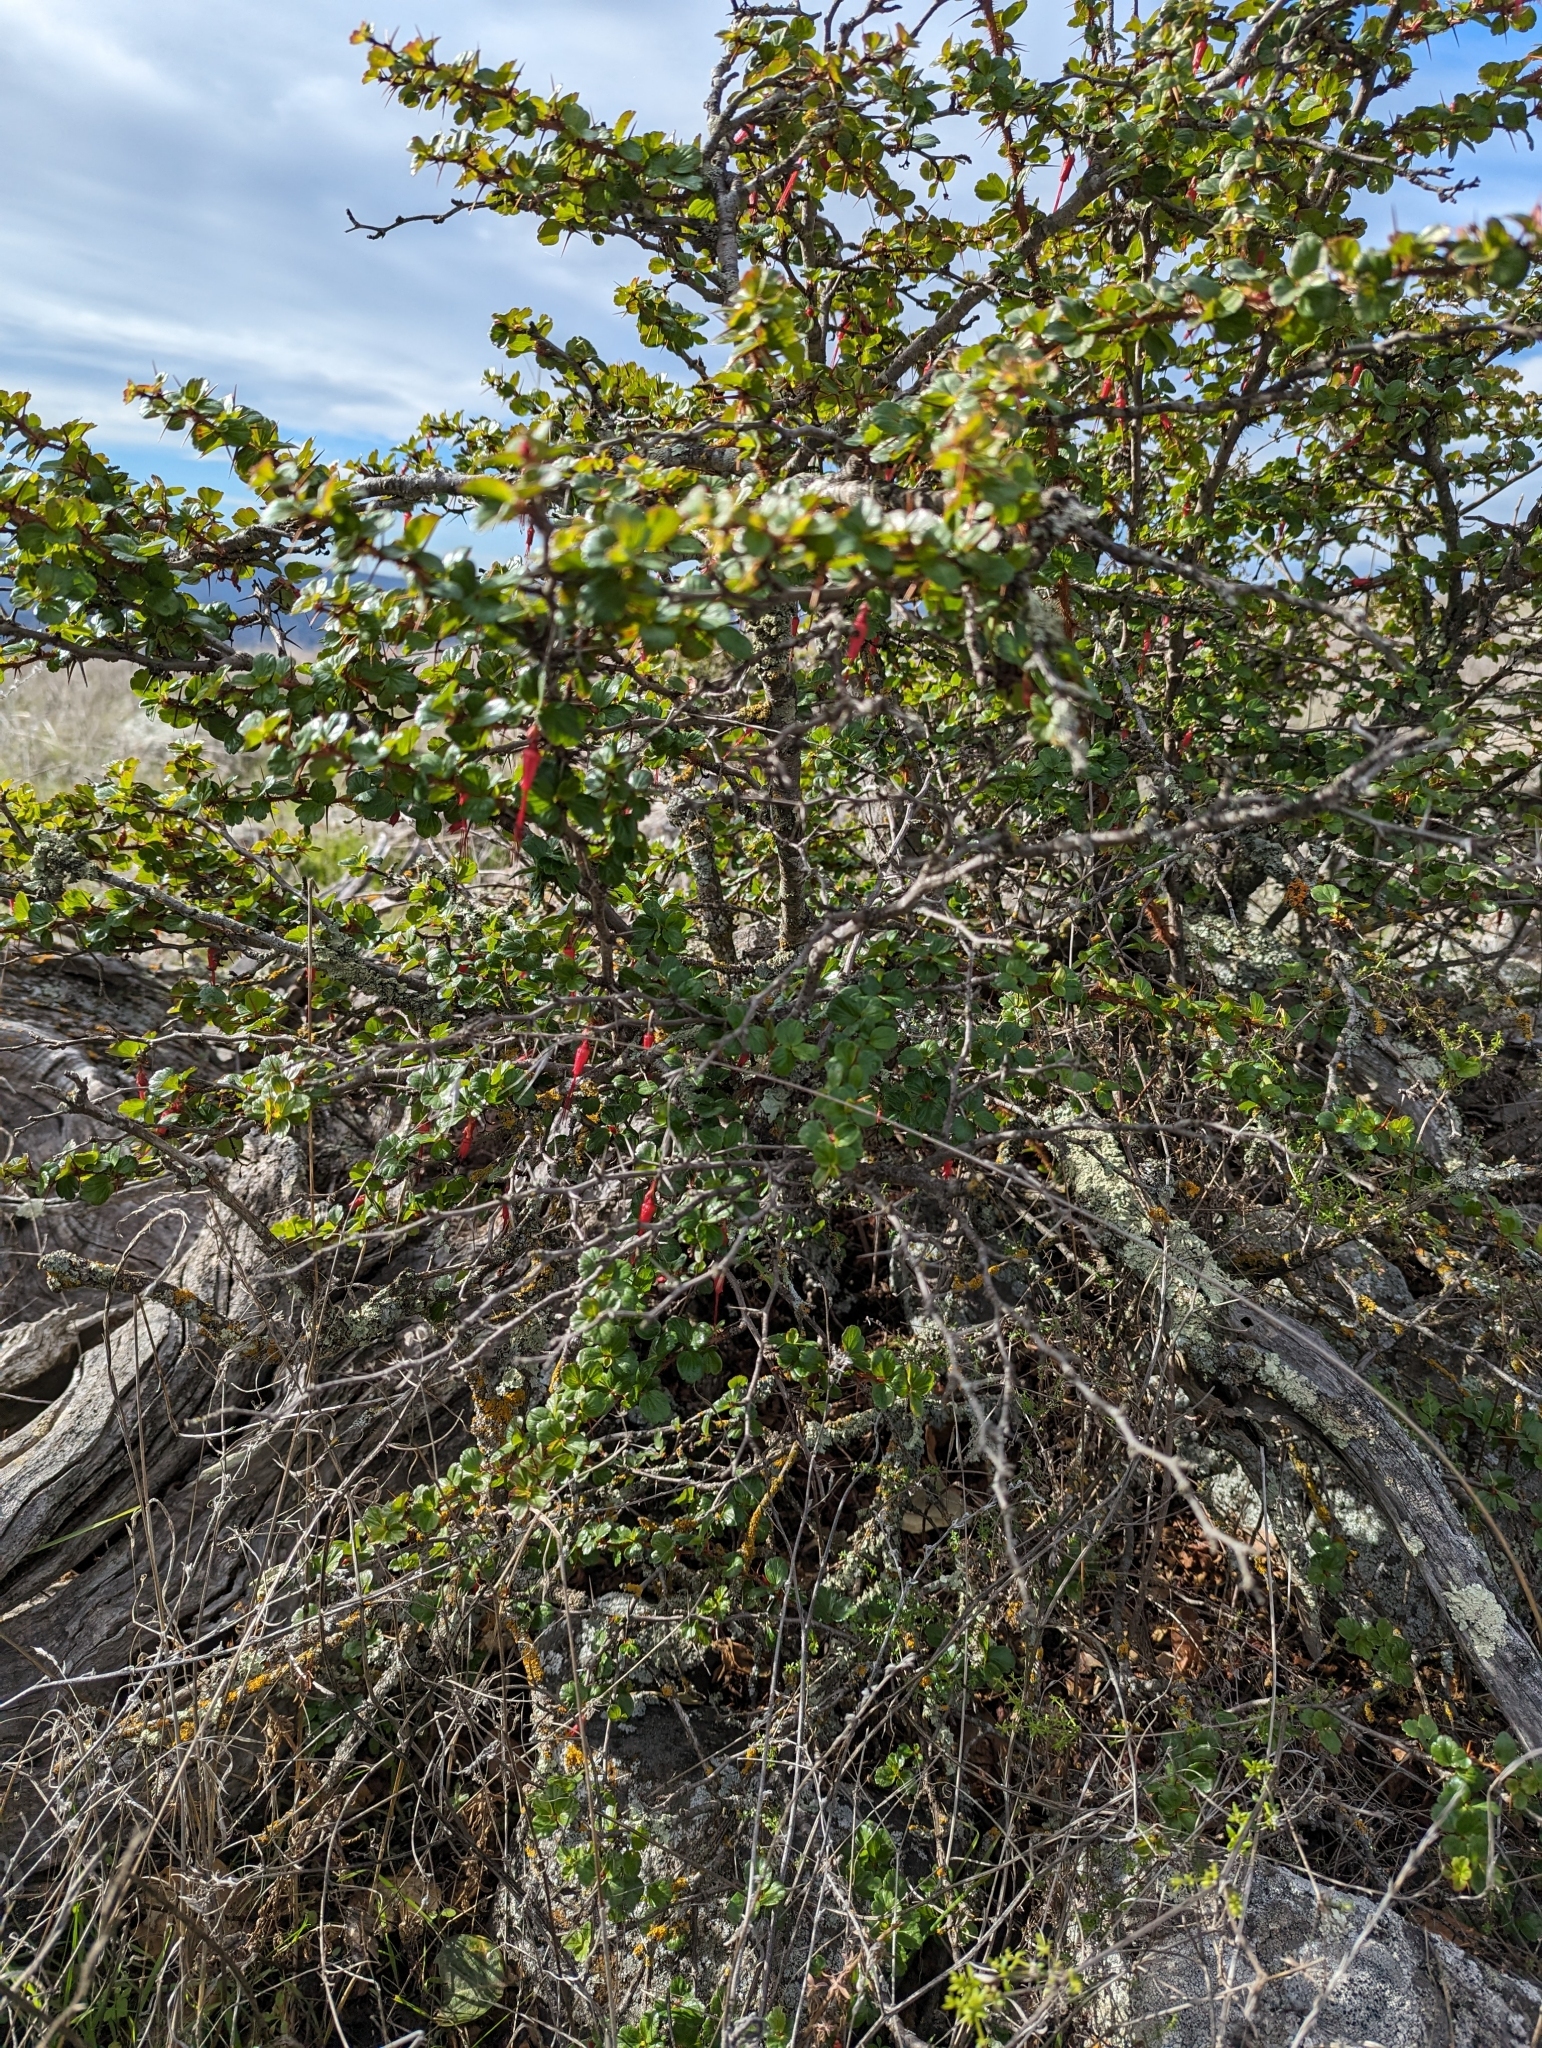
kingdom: Plantae
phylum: Tracheophyta
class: Magnoliopsida
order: Saxifragales
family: Grossulariaceae
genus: Ribes
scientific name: Ribes speciosum
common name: Fuchsia-flower gooseberry
